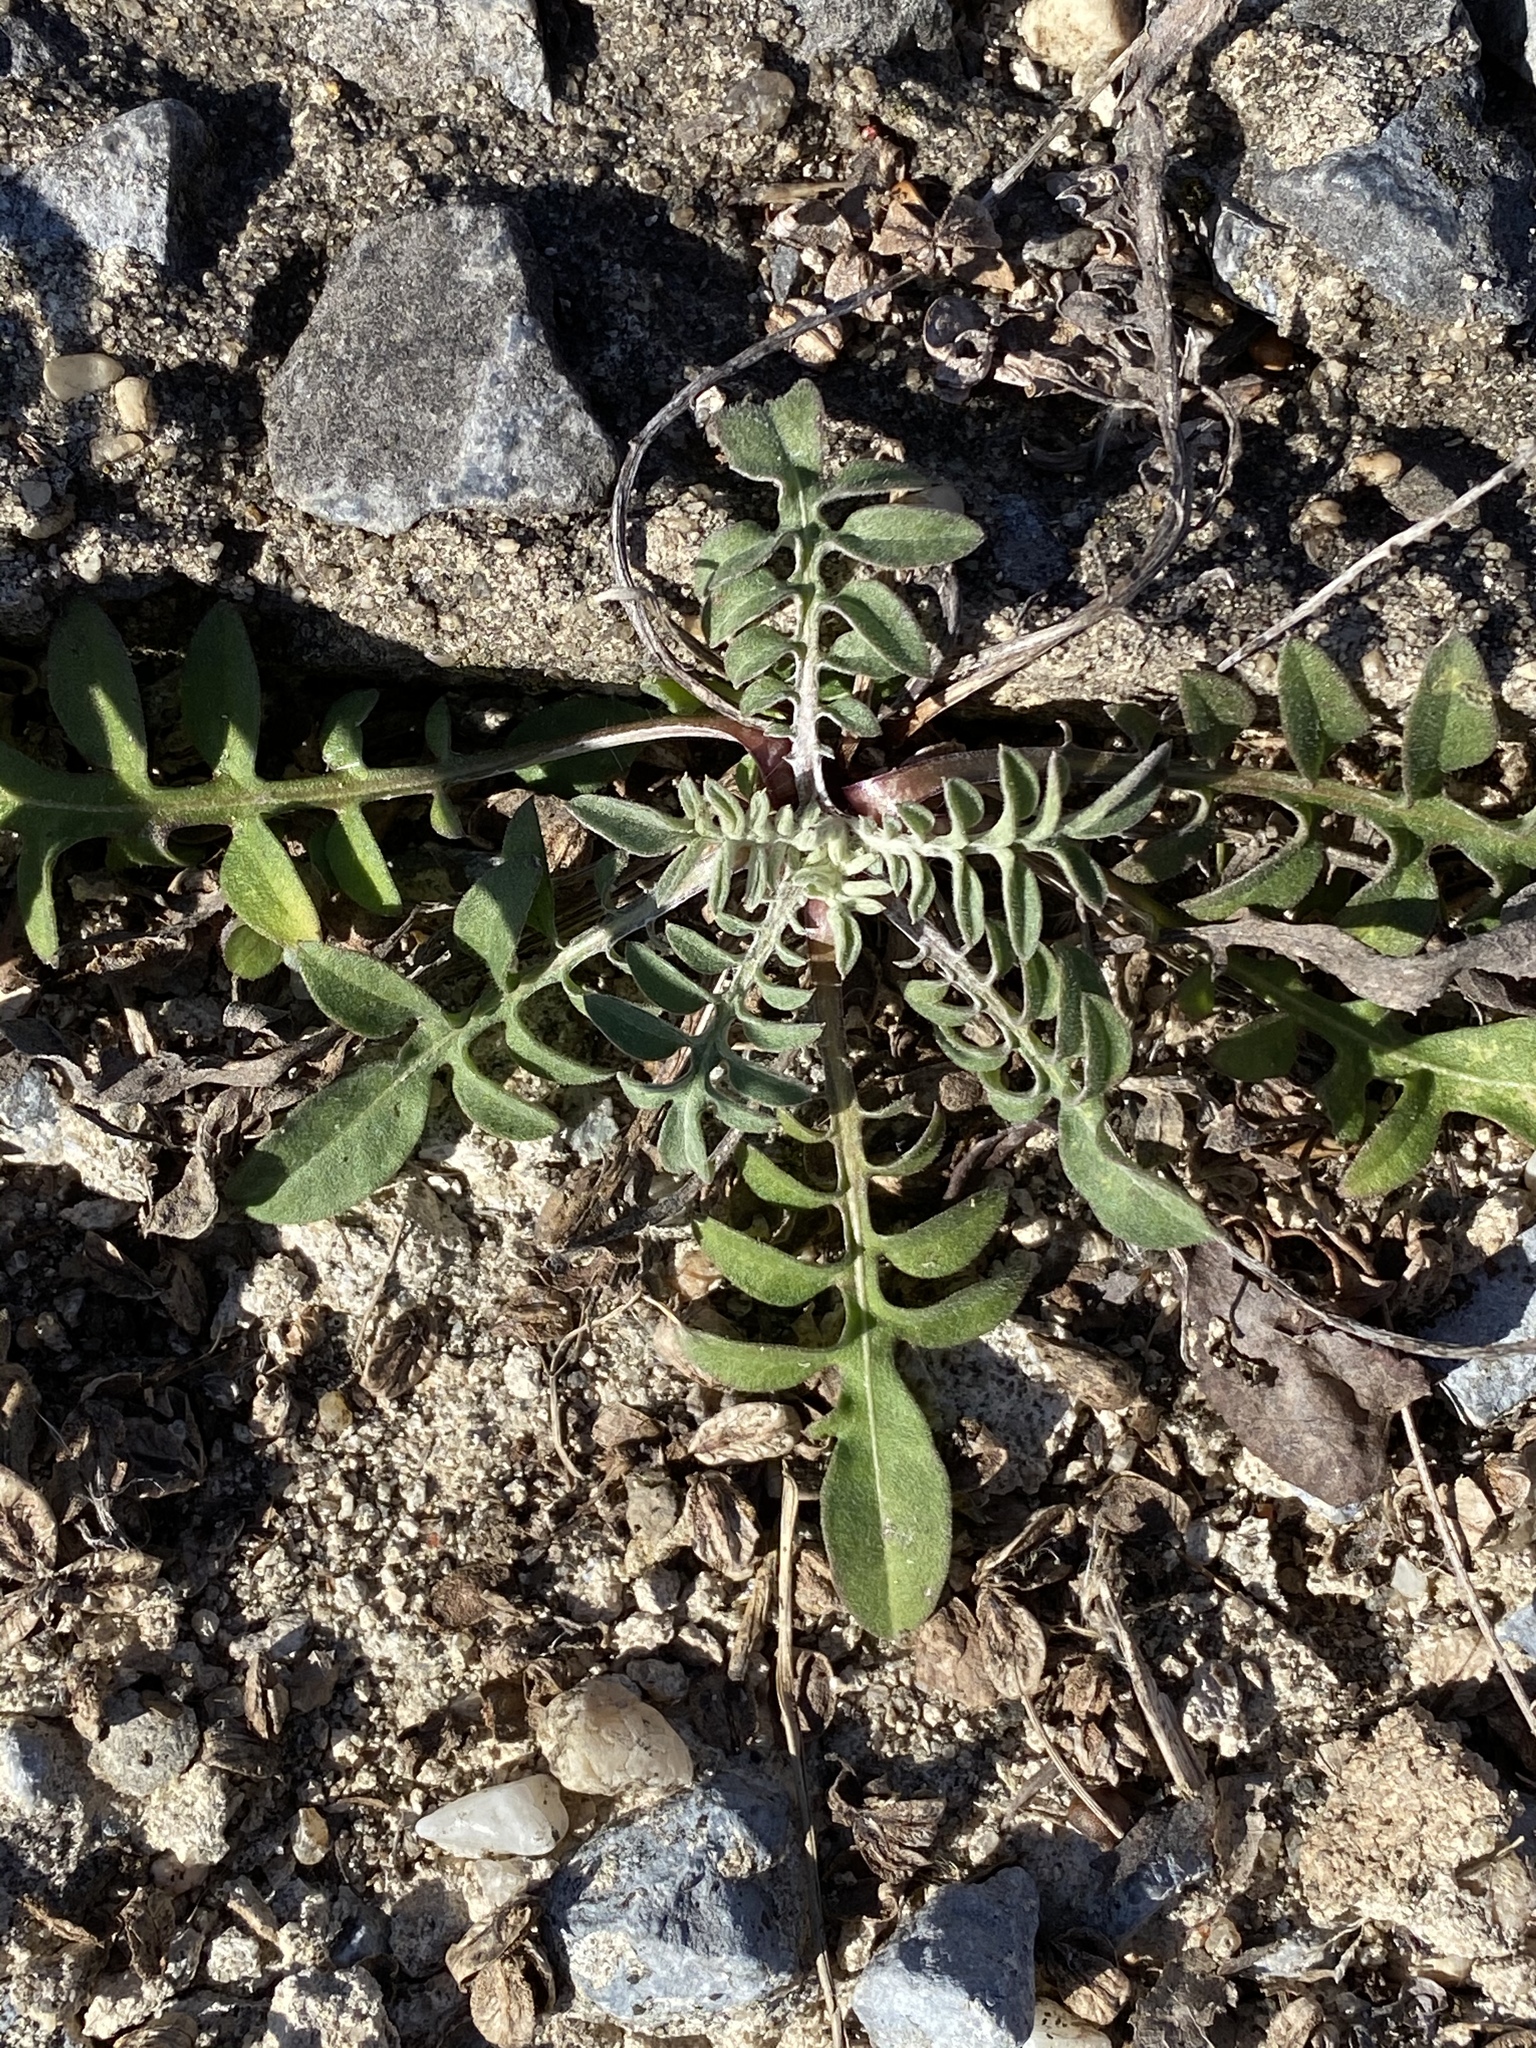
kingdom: Plantae
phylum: Tracheophyta
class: Magnoliopsida
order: Asterales
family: Asteraceae
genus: Centaurea
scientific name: Centaurea stoebe
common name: Spotted knapweed
